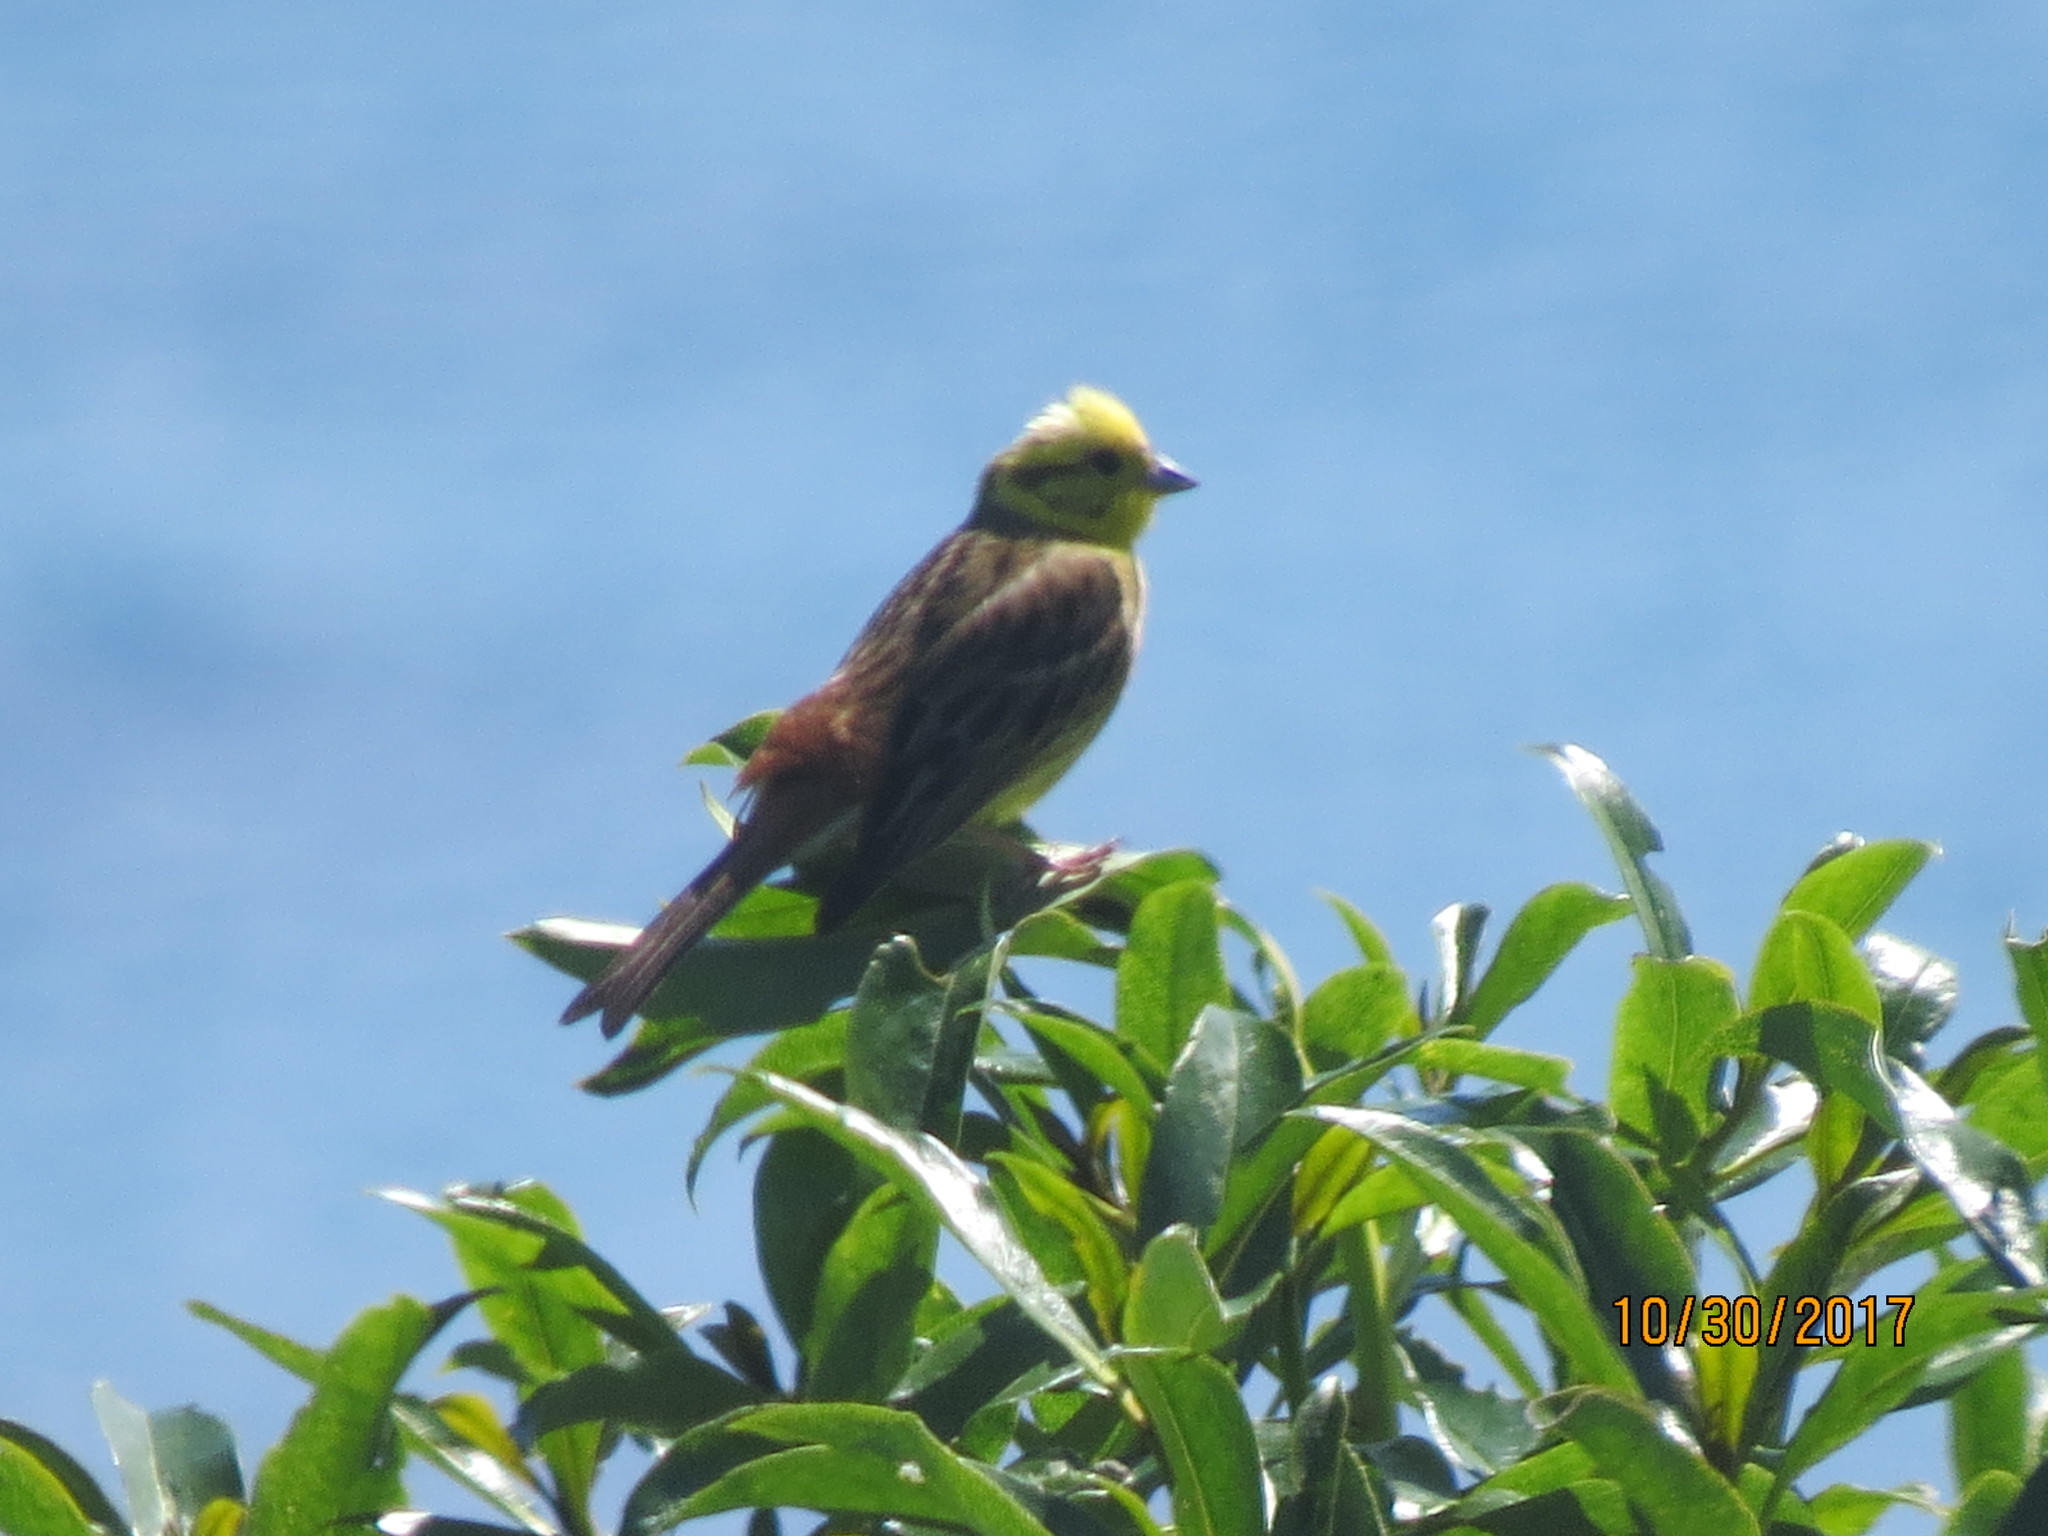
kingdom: Animalia
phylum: Chordata
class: Aves
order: Passeriformes
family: Emberizidae
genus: Emberiza
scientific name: Emberiza citrinella
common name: Yellowhammer
